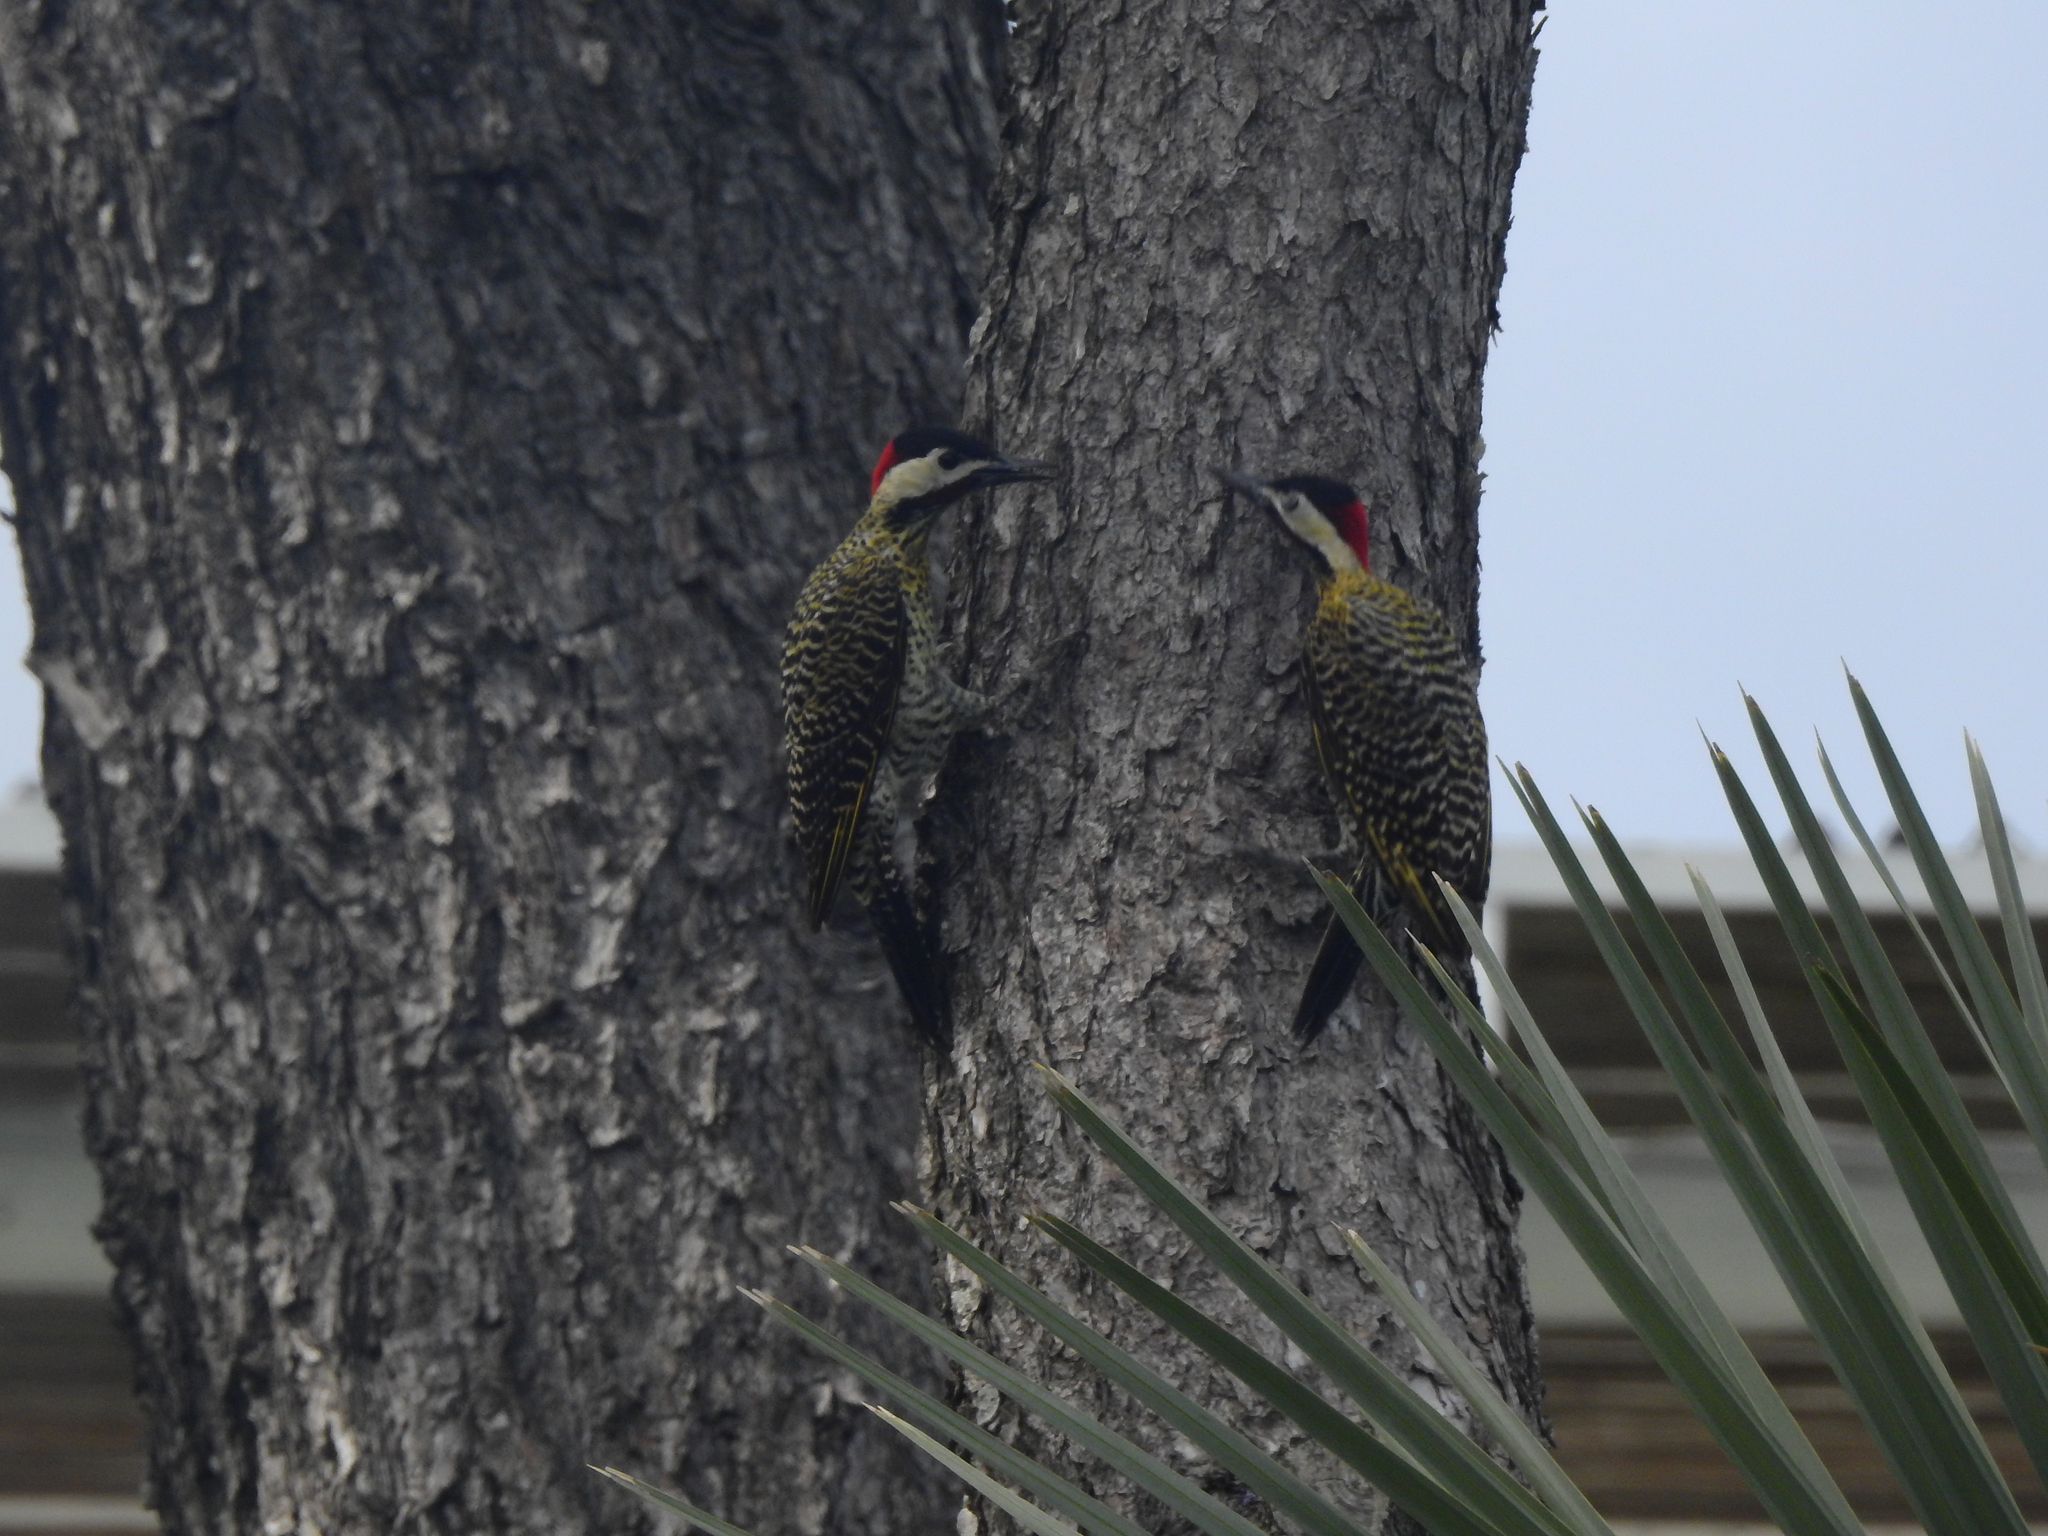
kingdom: Animalia
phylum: Chordata
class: Aves
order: Piciformes
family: Picidae
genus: Colaptes
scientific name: Colaptes melanochloros
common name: Green-barred woodpecker
